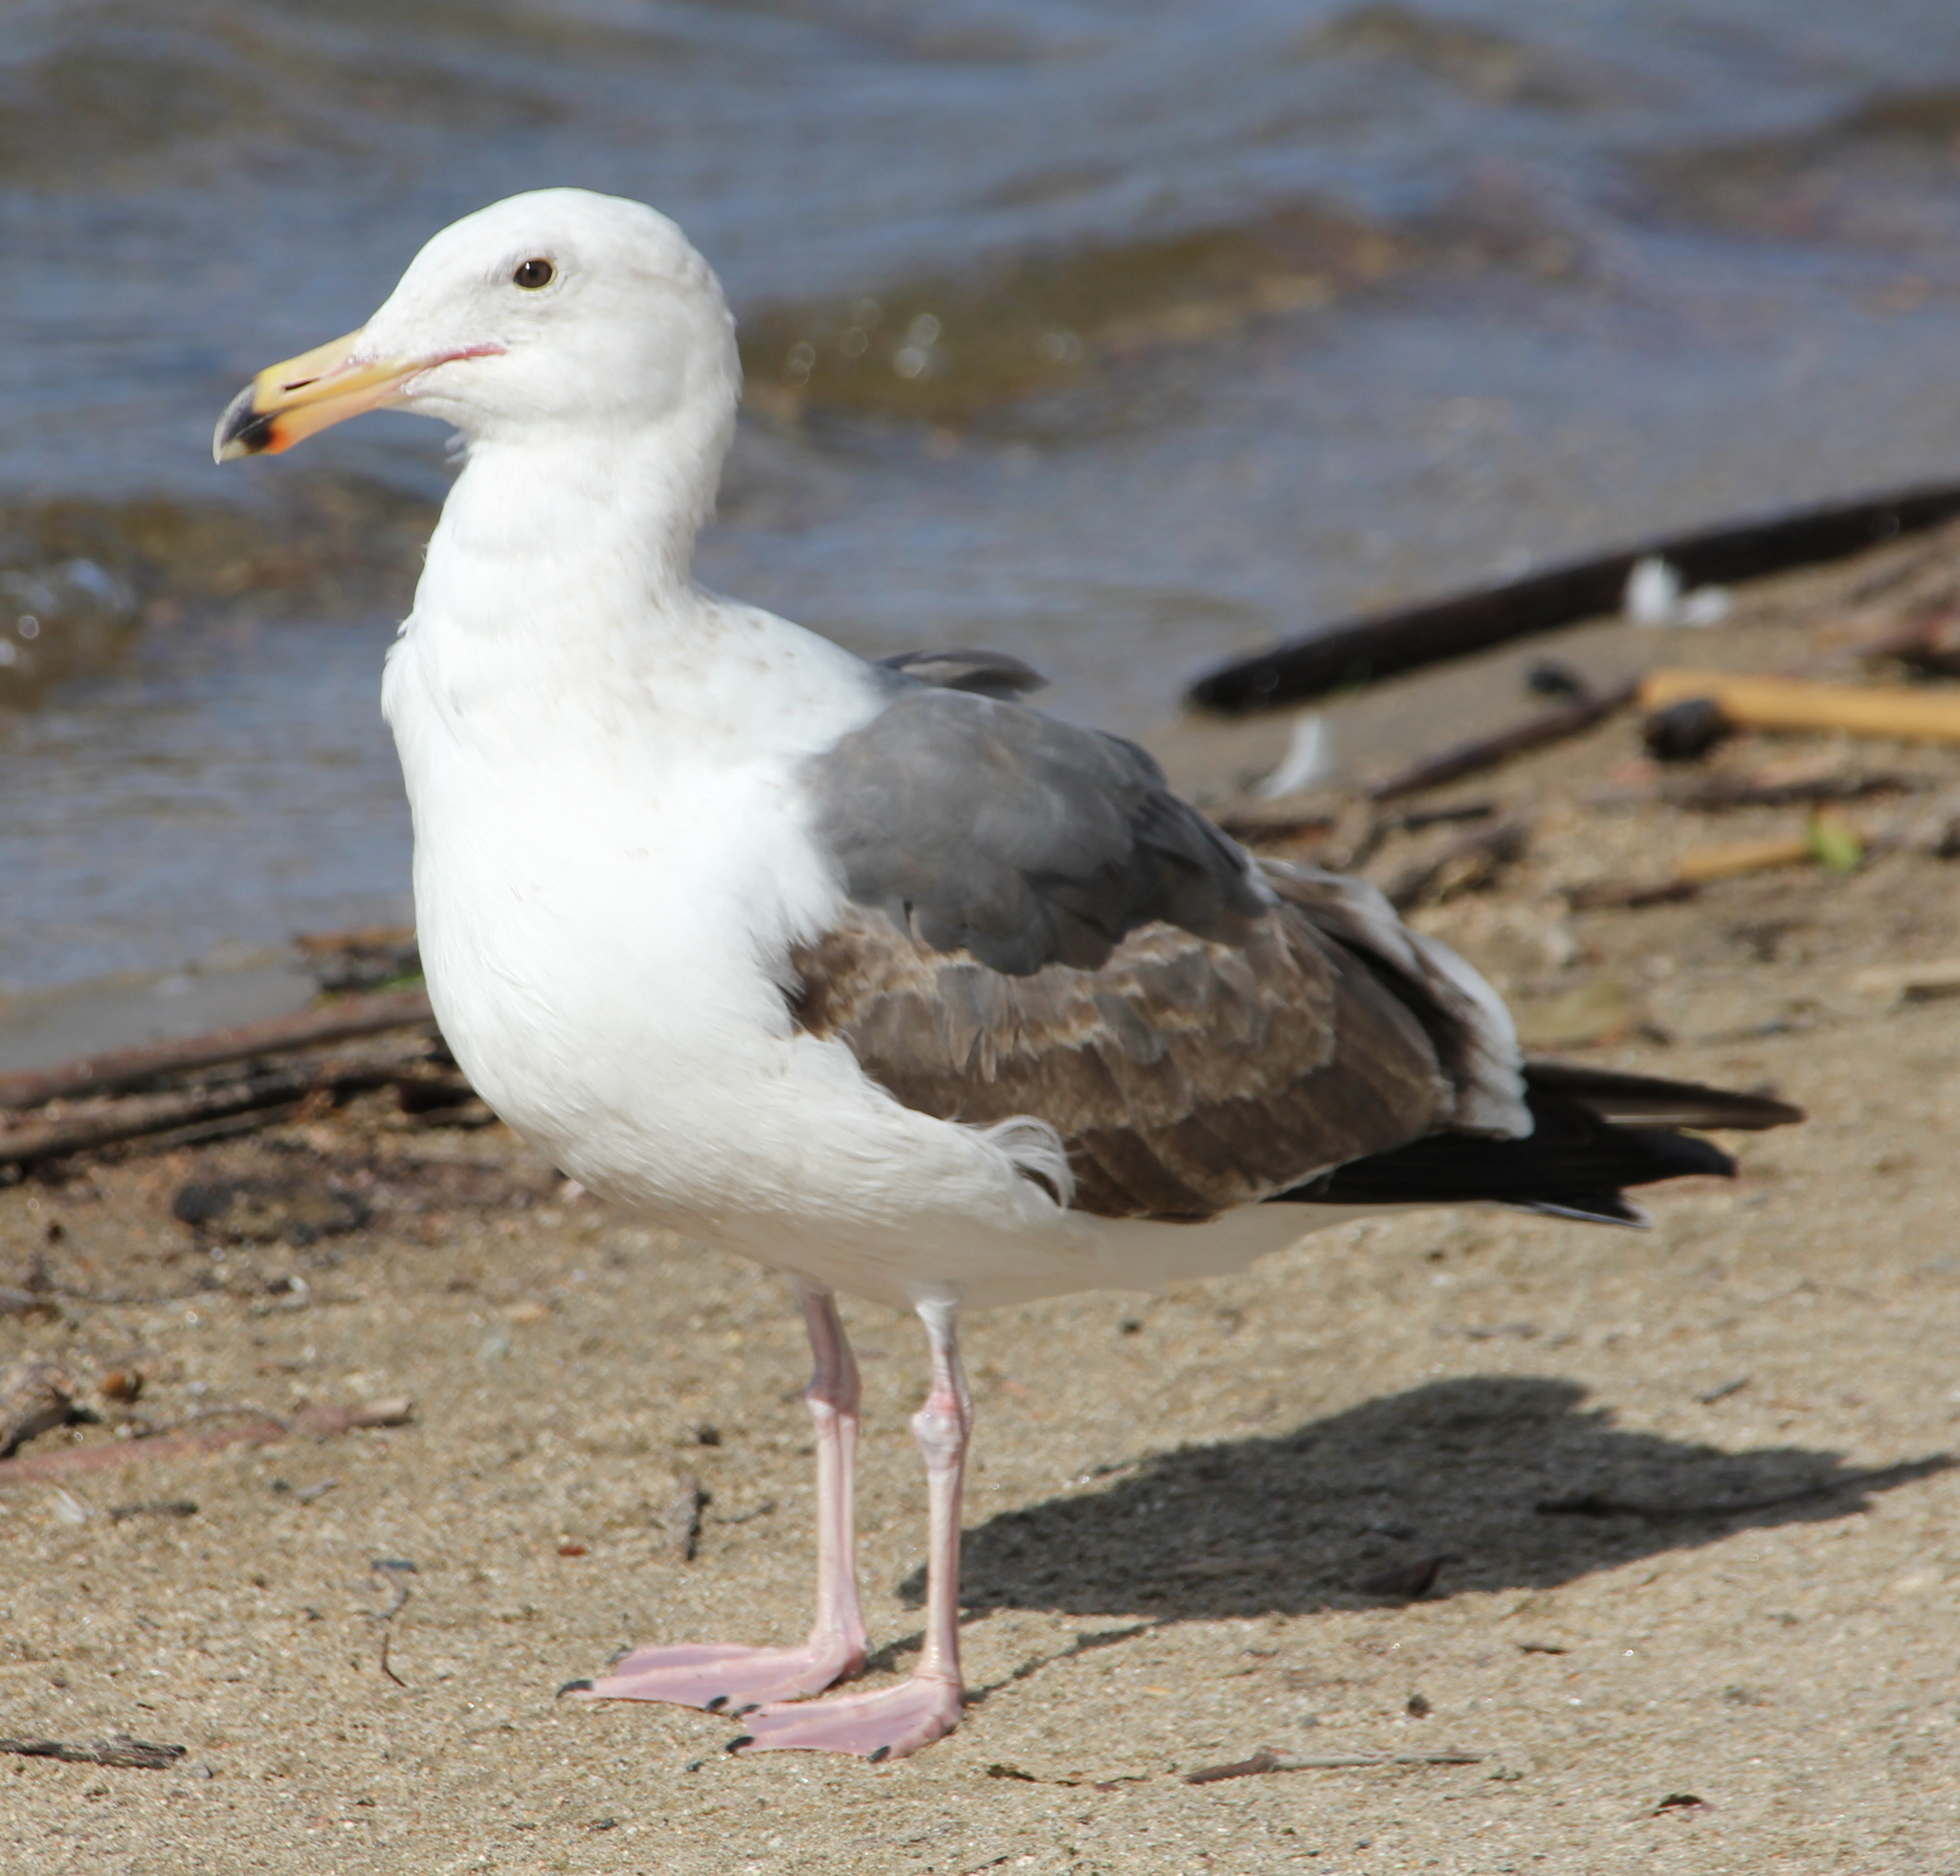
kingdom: Animalia
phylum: Chordata
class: Aves
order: Charadriiformes
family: Laridae
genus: Larus
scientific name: Larus occidentalis
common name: Western gull
